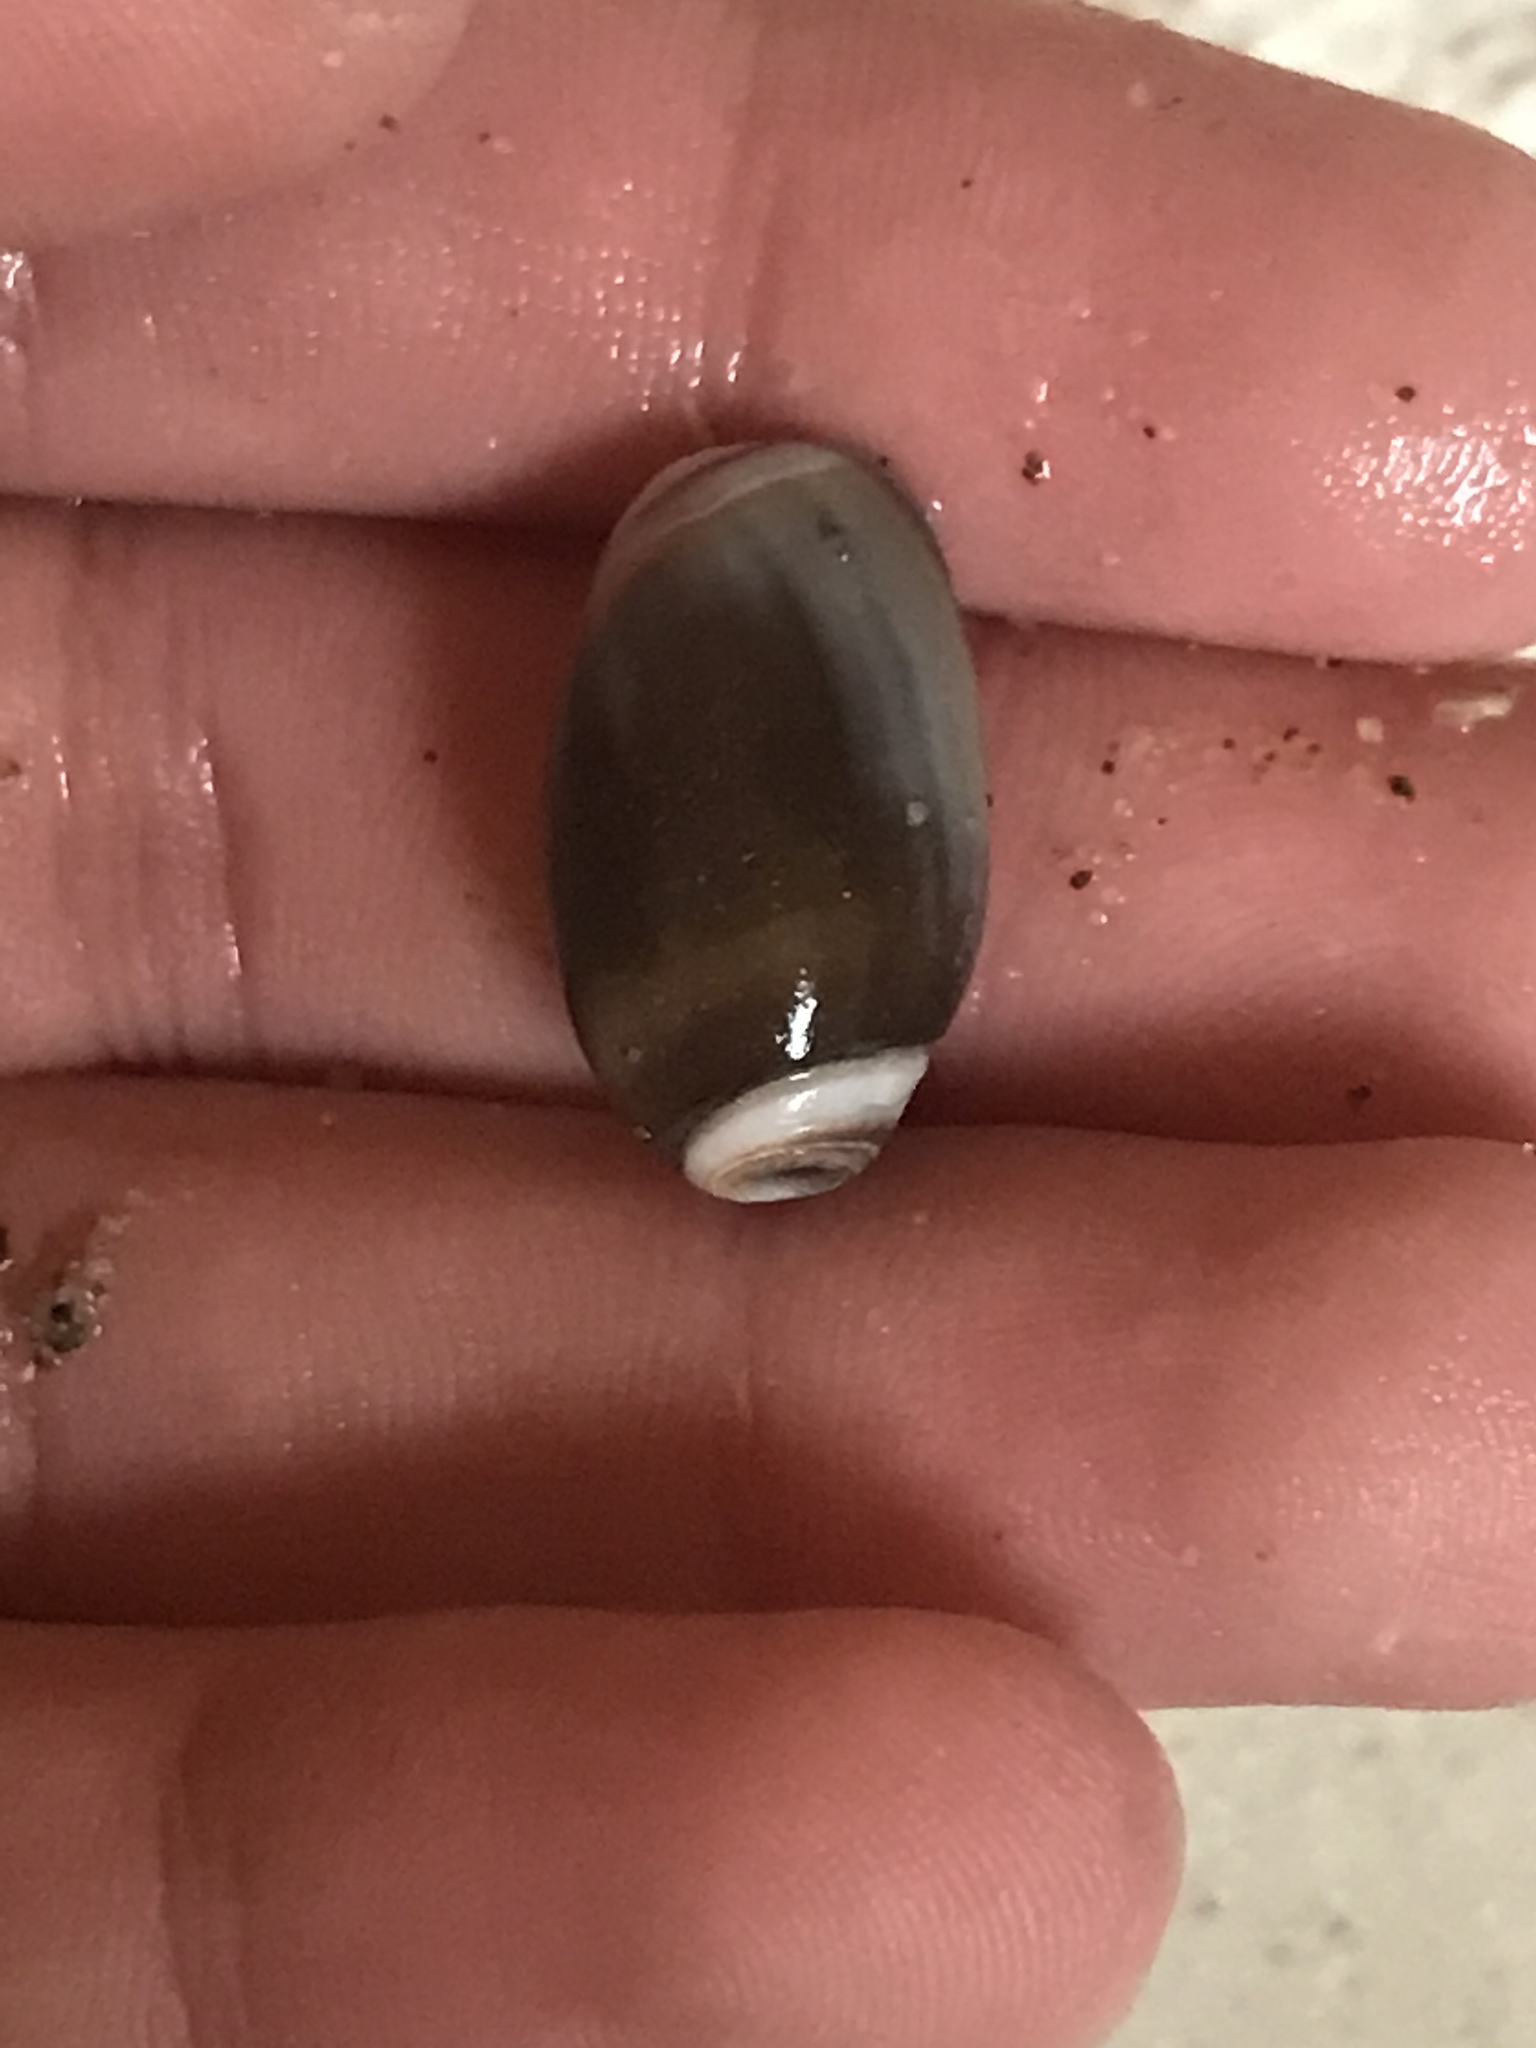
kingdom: Animalia
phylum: Mollusca
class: Gastropoda
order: Neogastropoda
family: Olividae
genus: Callianax
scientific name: Callianax biplicata
